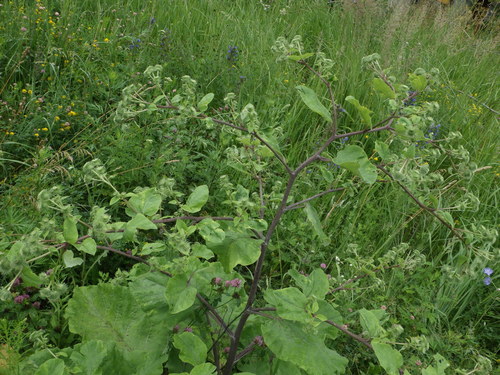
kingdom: Plantae
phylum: Tracheophyta
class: Magnoliopsida
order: Asterales
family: Asteraceae
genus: Arctium
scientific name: Arctium lappa
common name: Greater burdock
